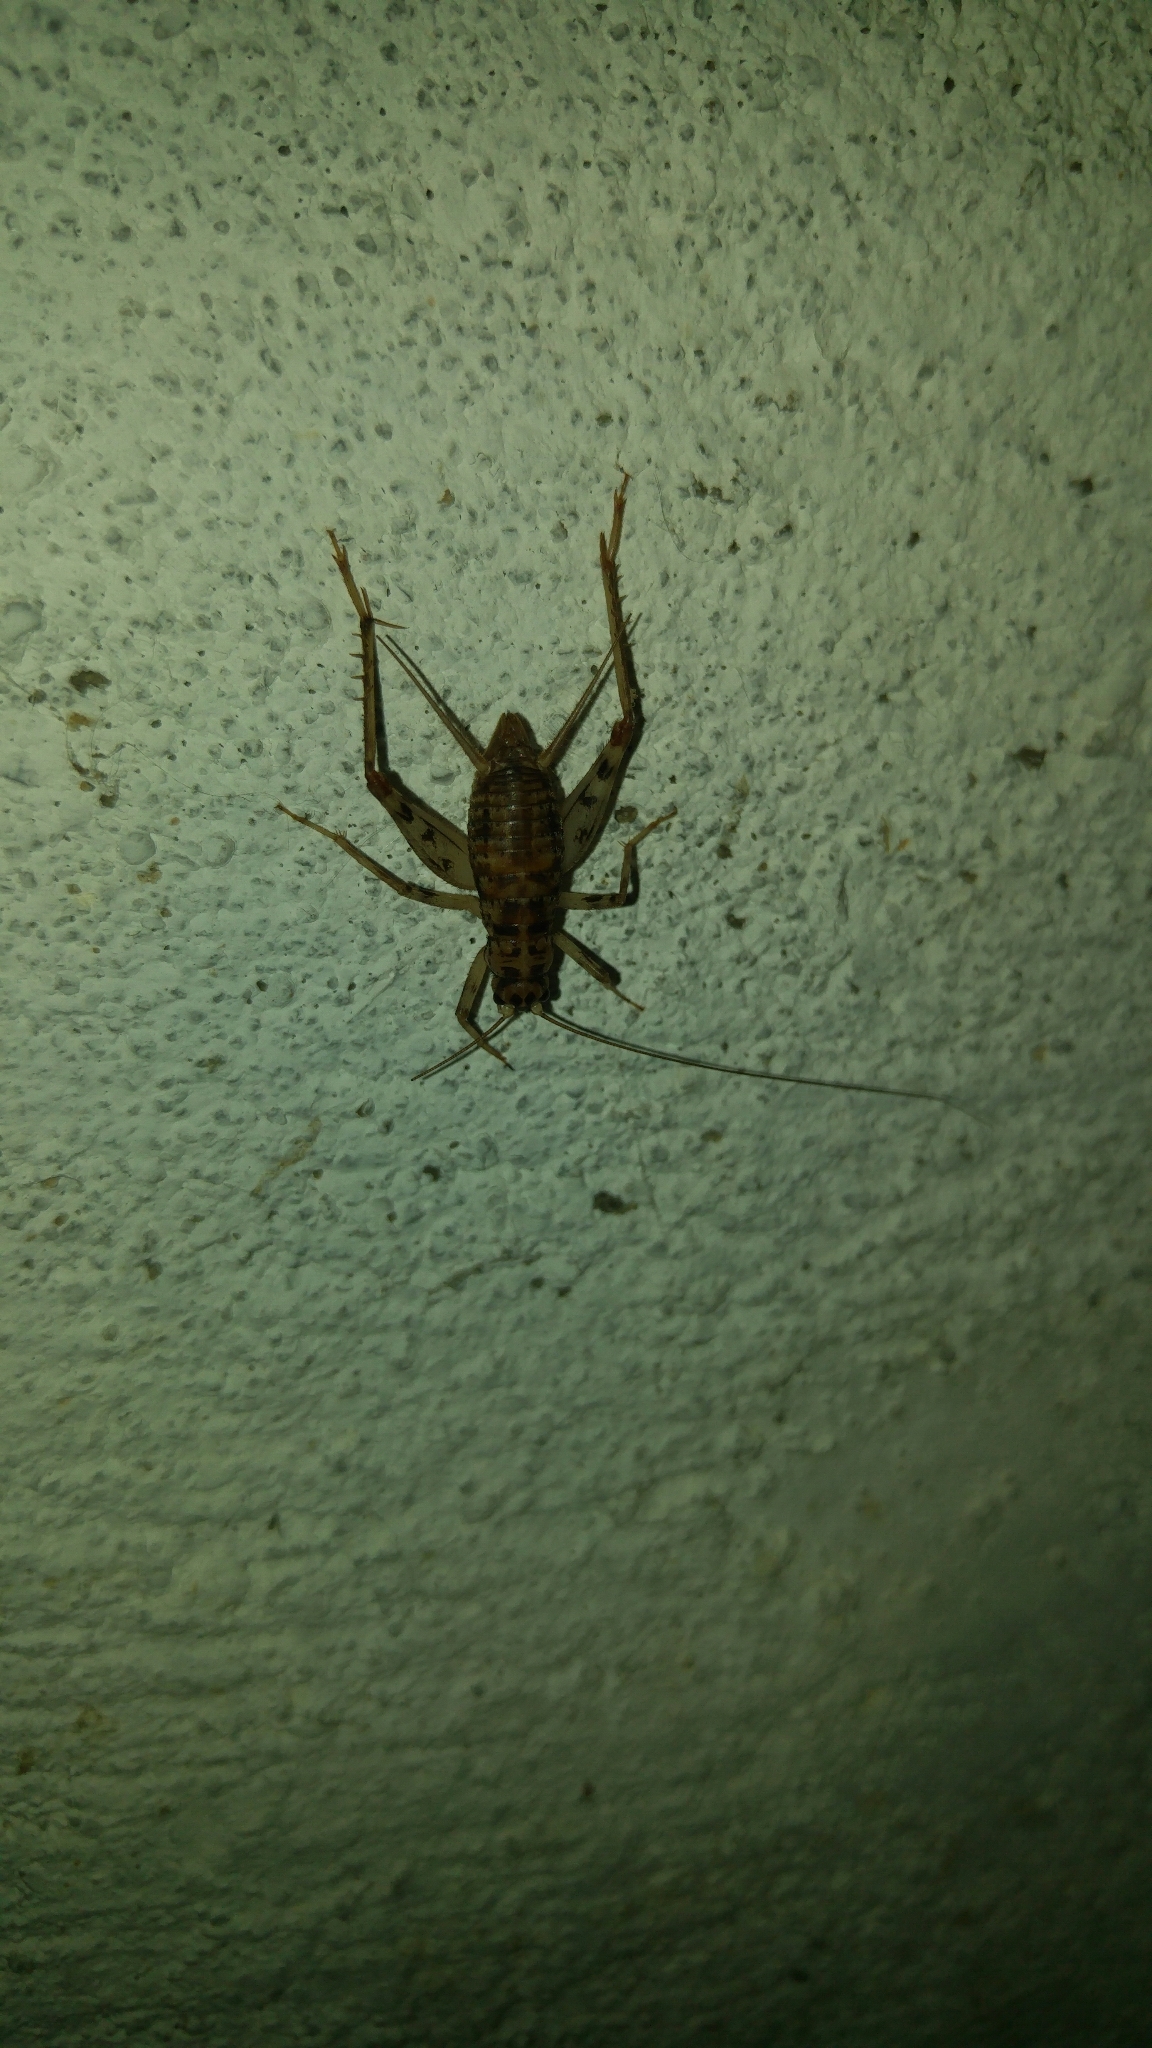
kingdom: Animalia
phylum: Arthropoda
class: Insecta
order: Orthoptera
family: Gryllidae
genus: Gryllomorpha
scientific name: Gryllomorpha dalmatina
